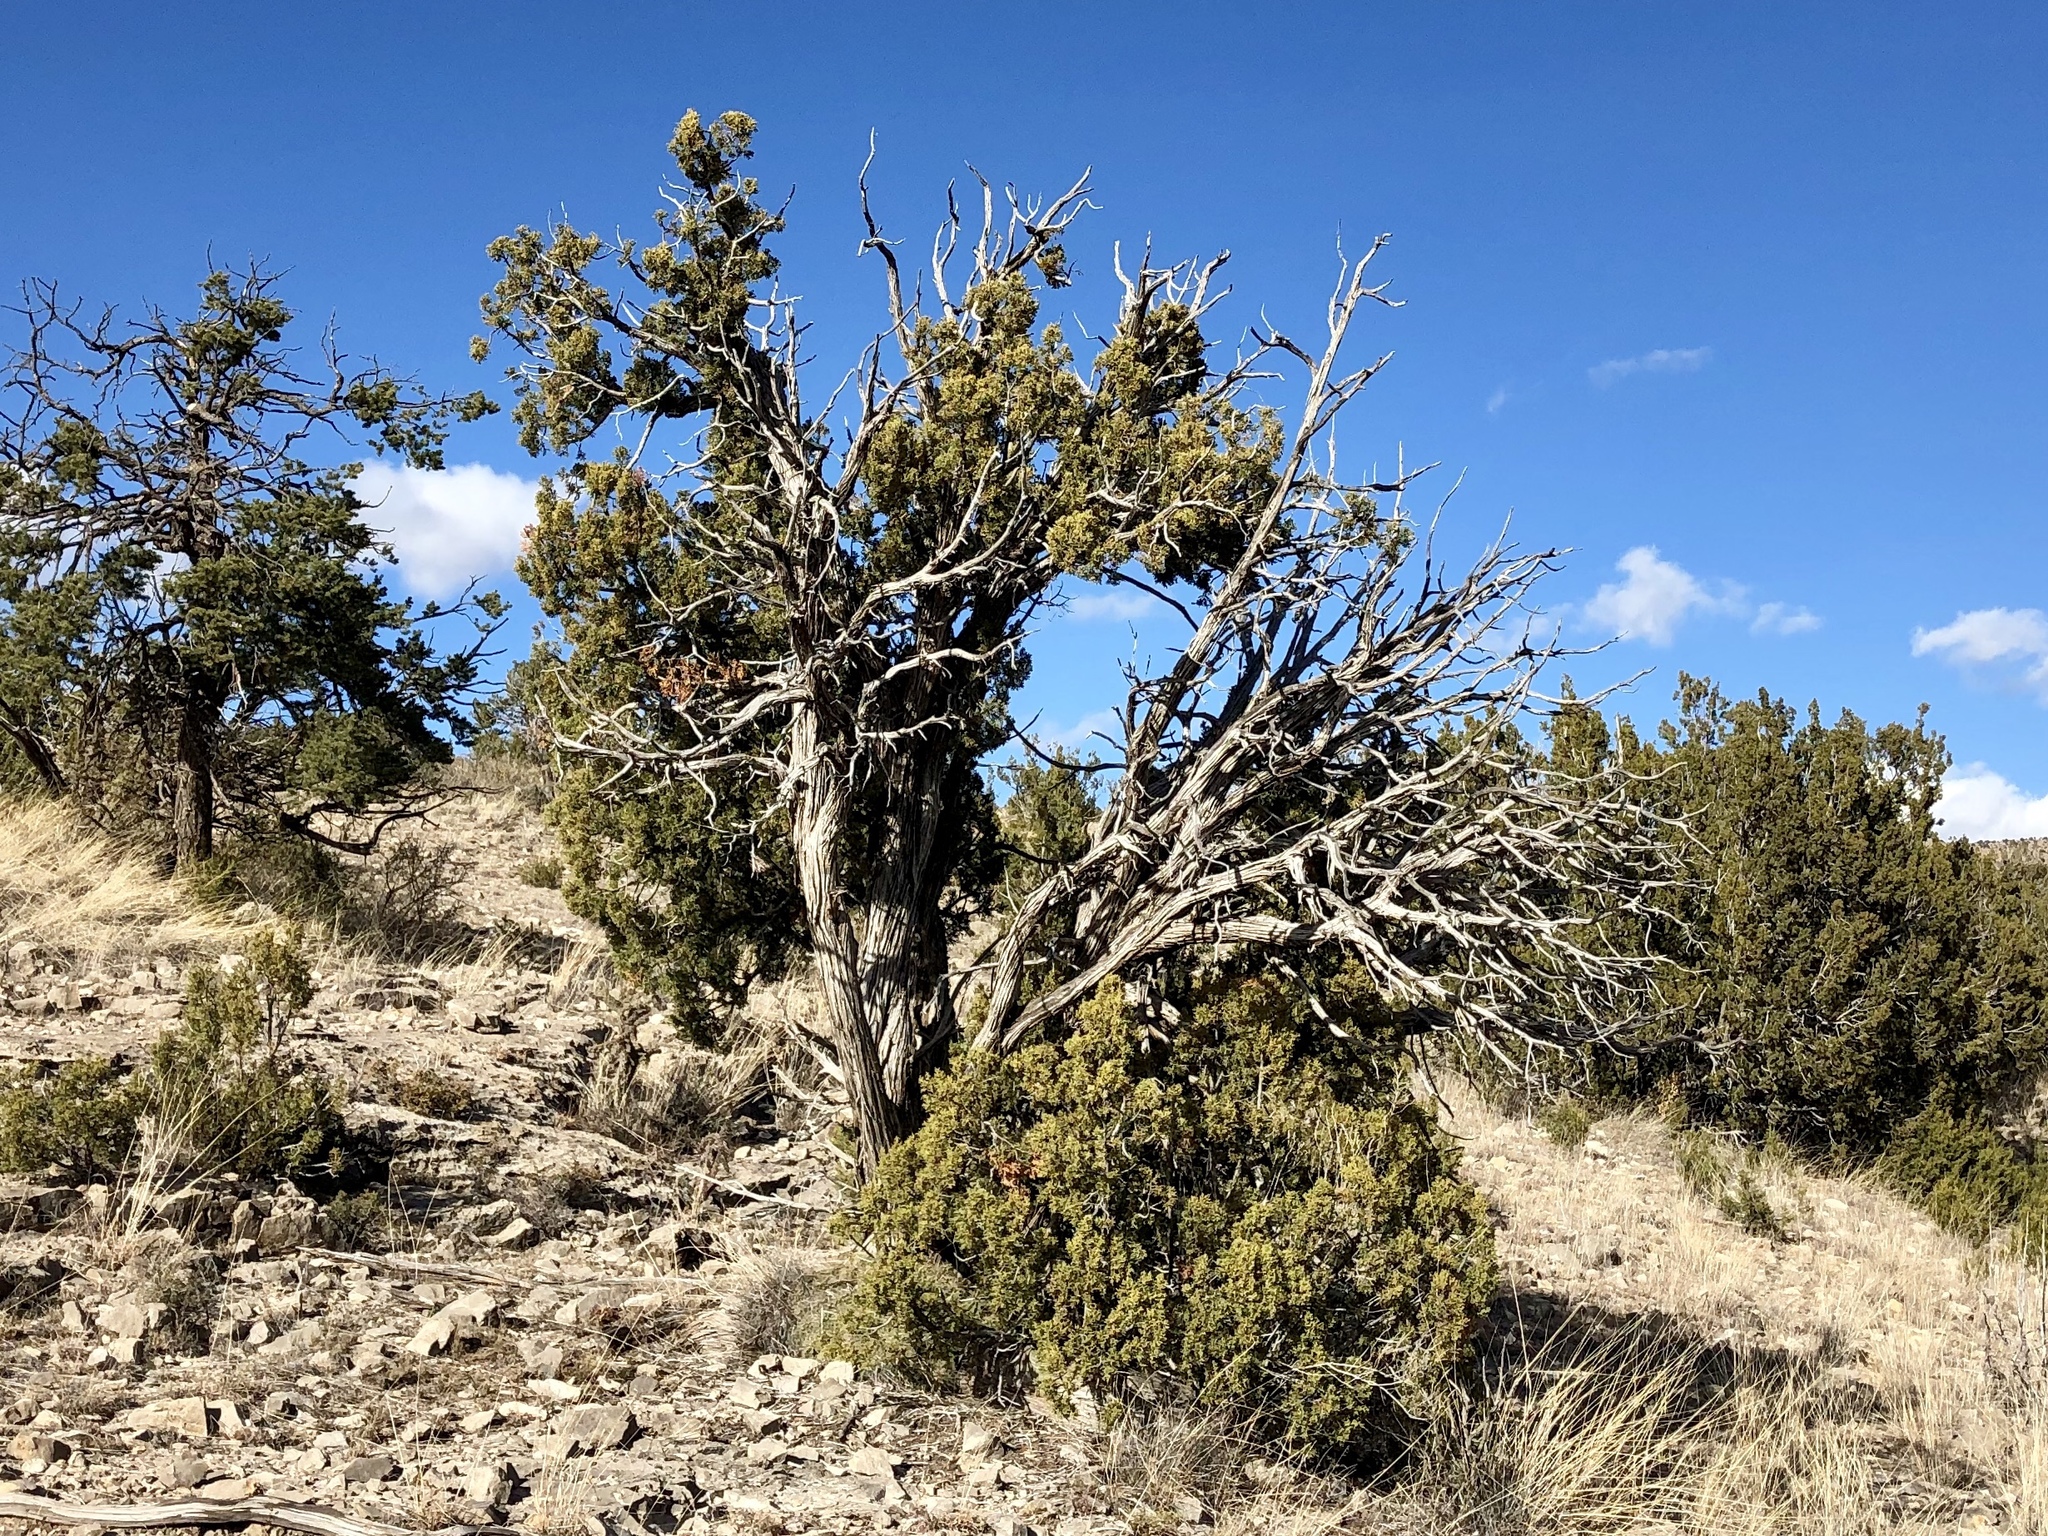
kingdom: Plantae
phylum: Tracheophyta
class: Pinopsida
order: Pinales
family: Cupressaceae
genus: Juniperus
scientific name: Juniperus monosperma
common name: One-seed juniper
